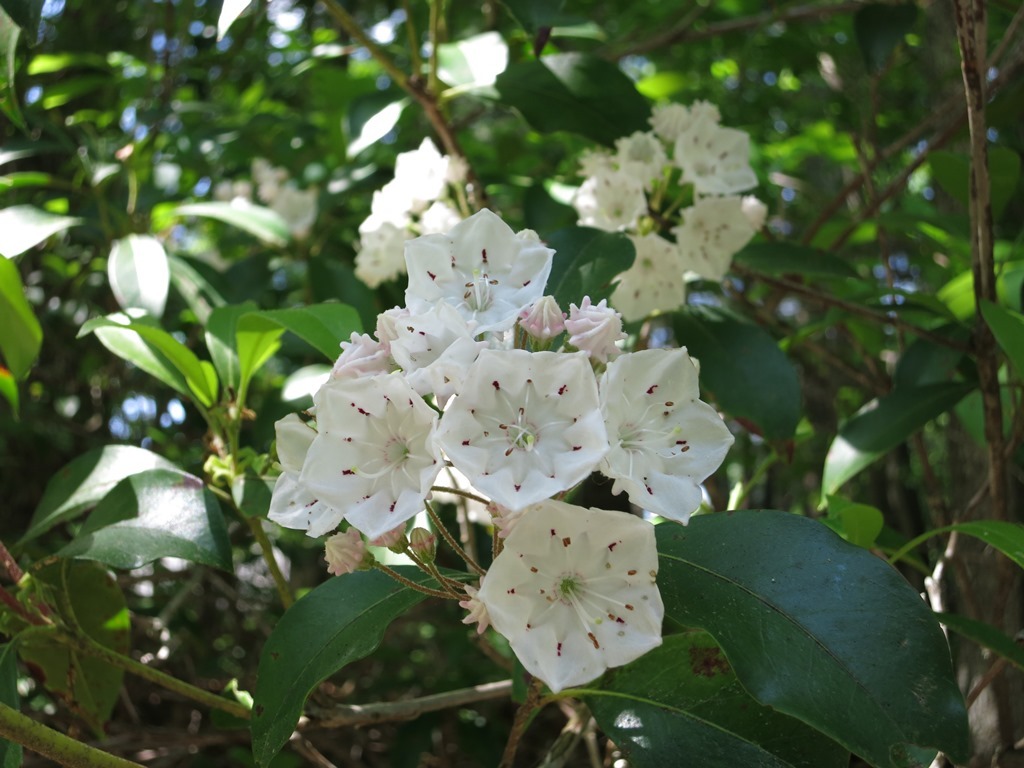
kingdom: Plantae
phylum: Tracheophyta
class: Magnoliopsida
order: Ericales
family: Ericaceae
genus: Kalmia
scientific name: Kalmia latifolia
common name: Mountain-laurel
